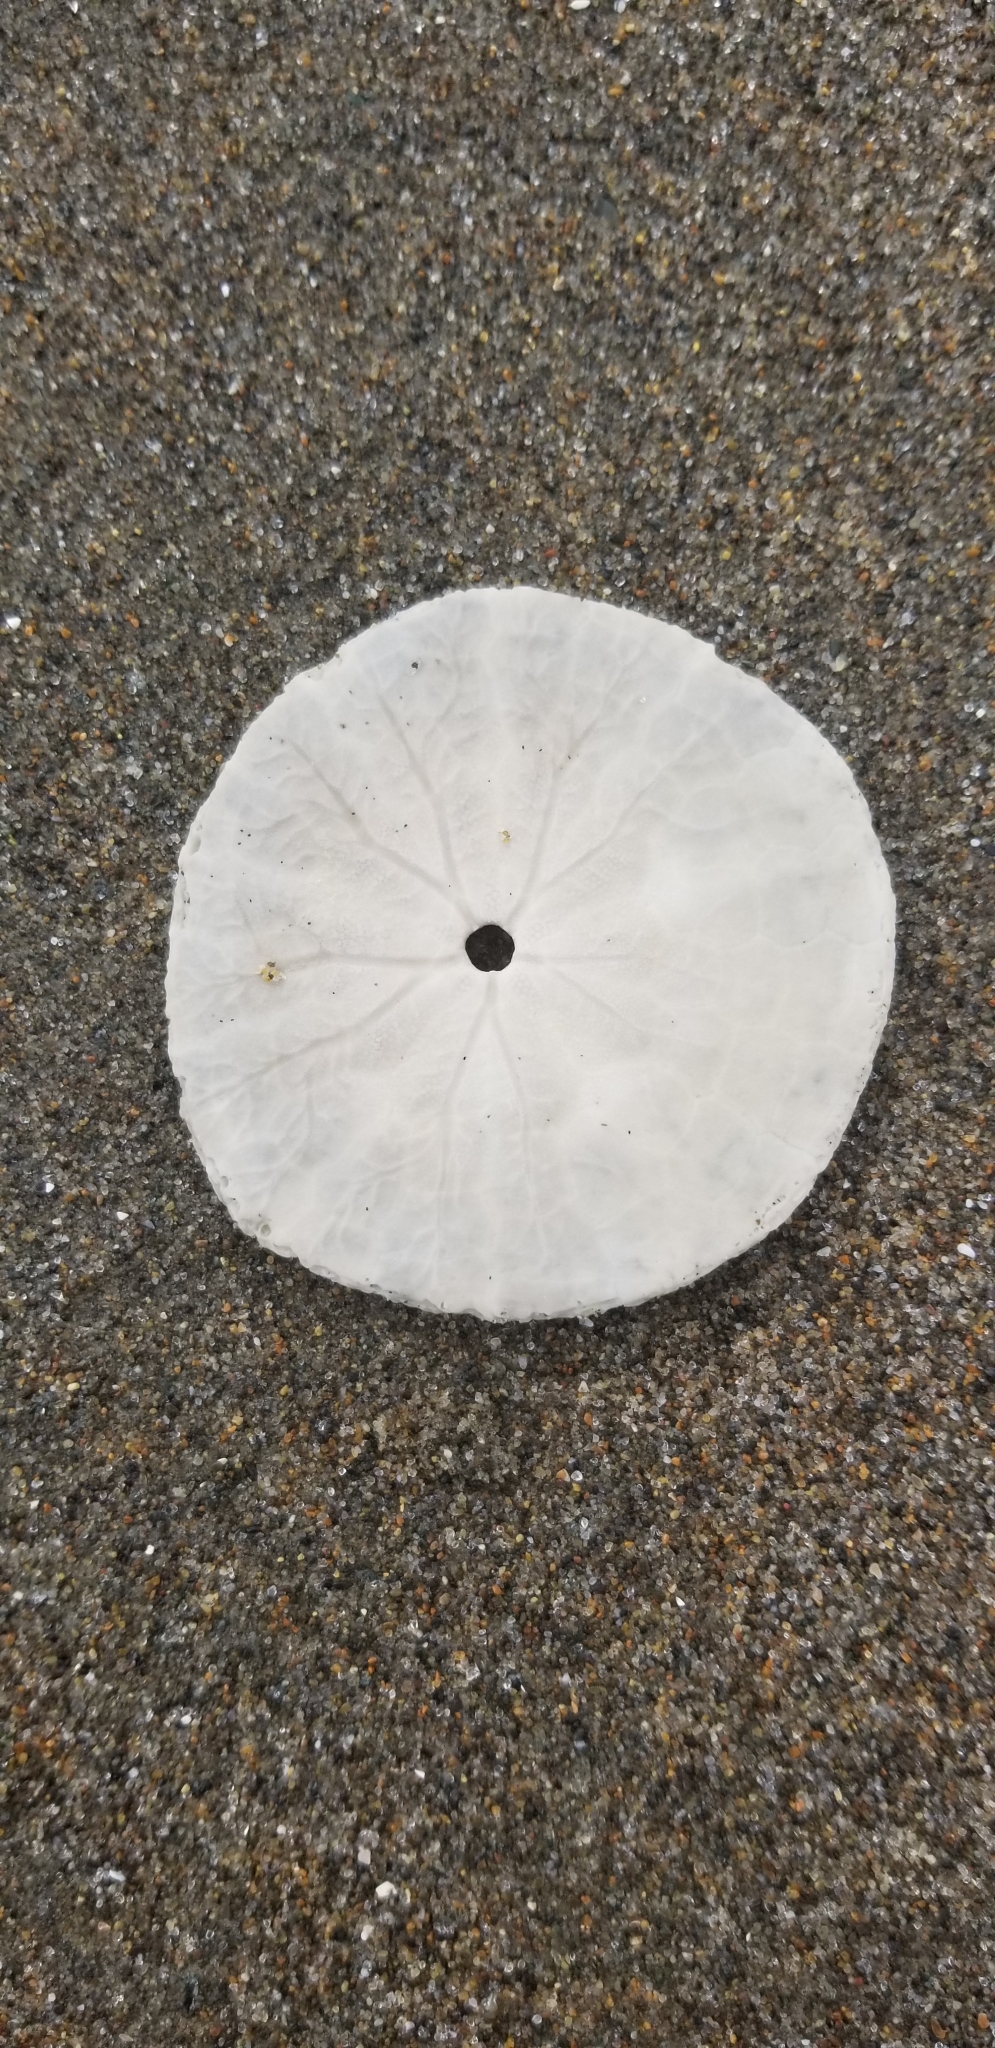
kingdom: Animalia
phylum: Echinodermata
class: Echinoidea
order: Echinolampadacea
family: Dendrasteridae
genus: Dendraster
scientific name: Dendraster excentricus
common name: Eccentric sand dollar sea urchin
